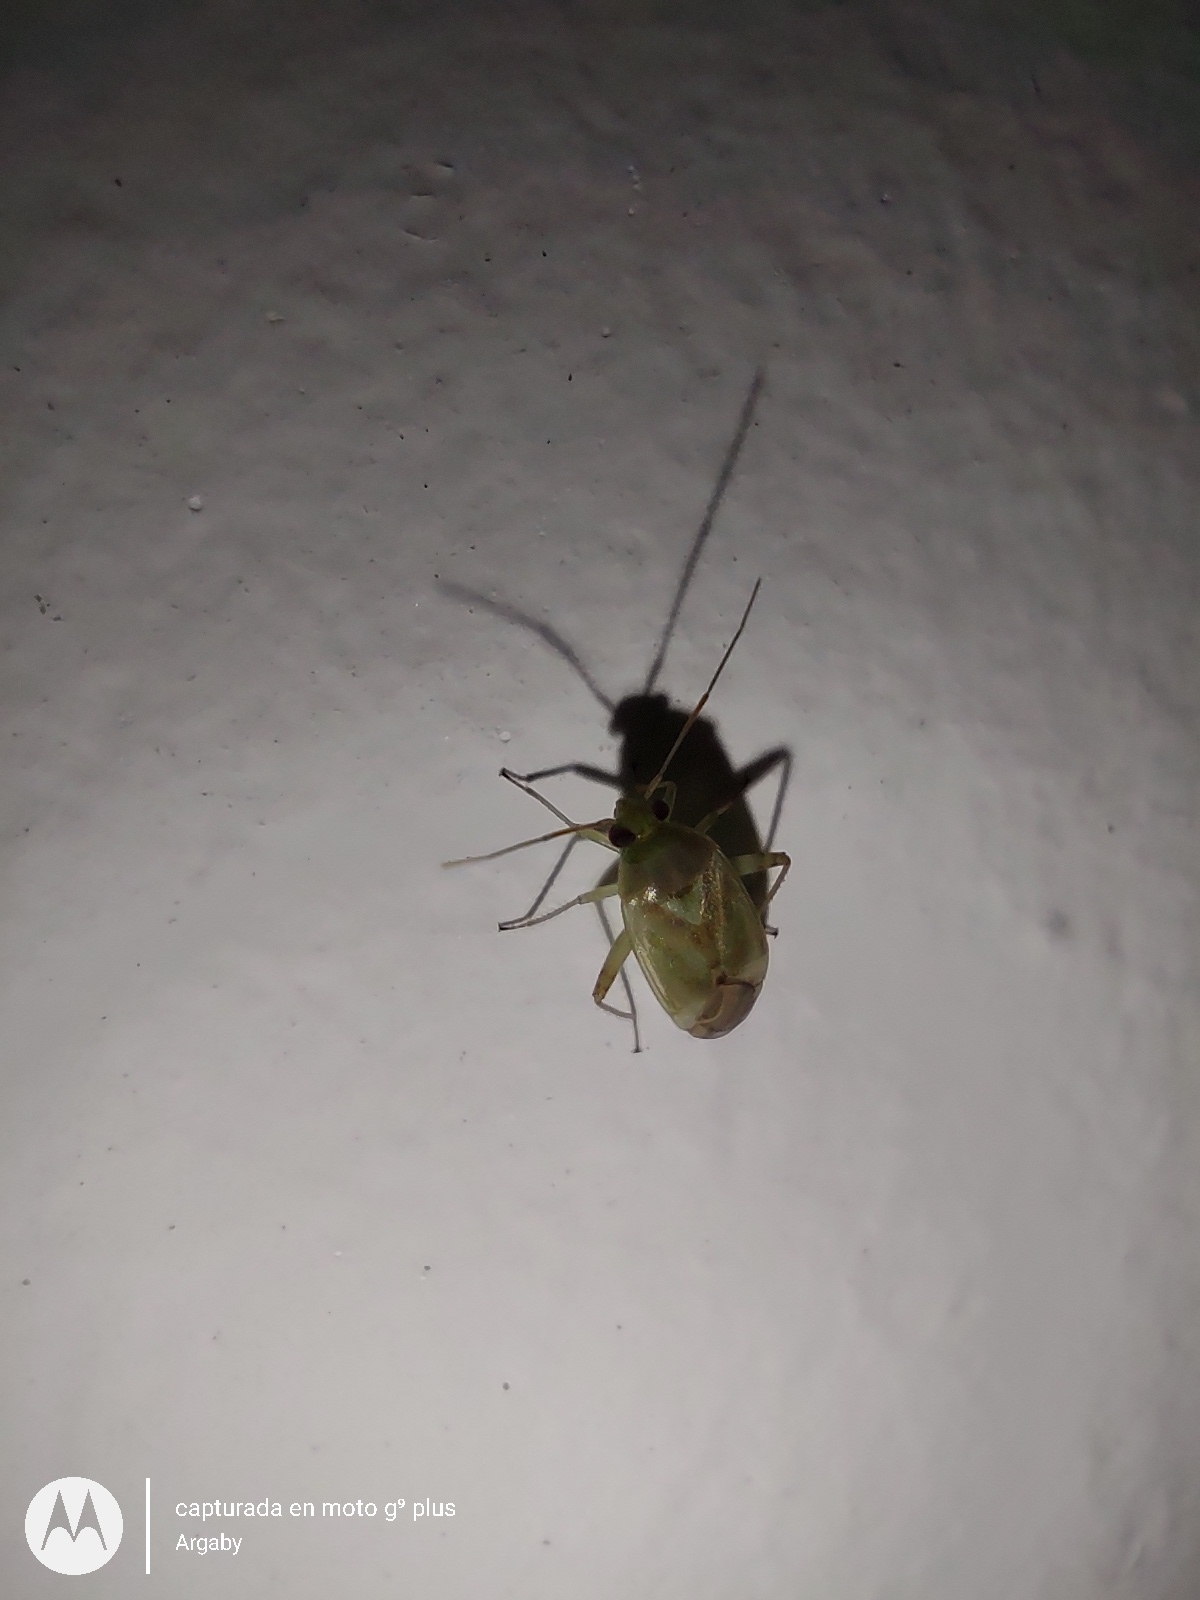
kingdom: Animalia
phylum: Arthropoda
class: Insecta
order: Hemiptera
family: Miridae
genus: Taylorilygus
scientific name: Taylorilygus apicalis
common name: Plant bug
